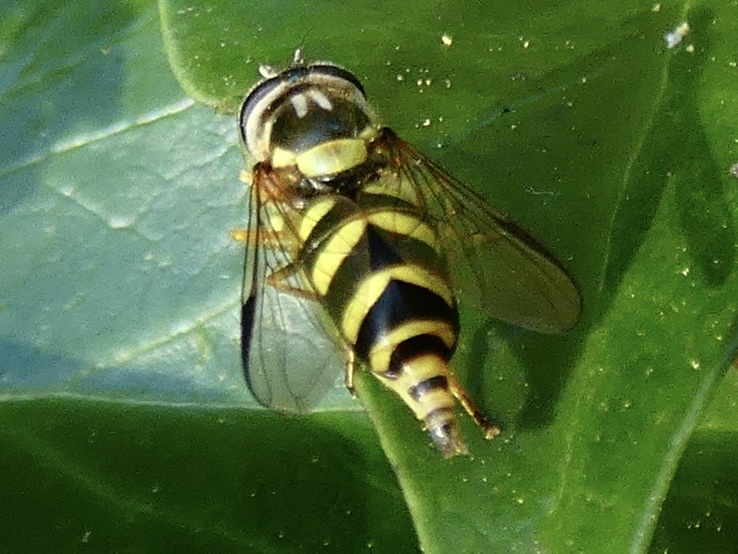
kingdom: Animalia
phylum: Arthropoda
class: Insecta
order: Diptera
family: Syrphidae
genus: Dasysyrphus
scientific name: Dasysyrphus albostriatus
